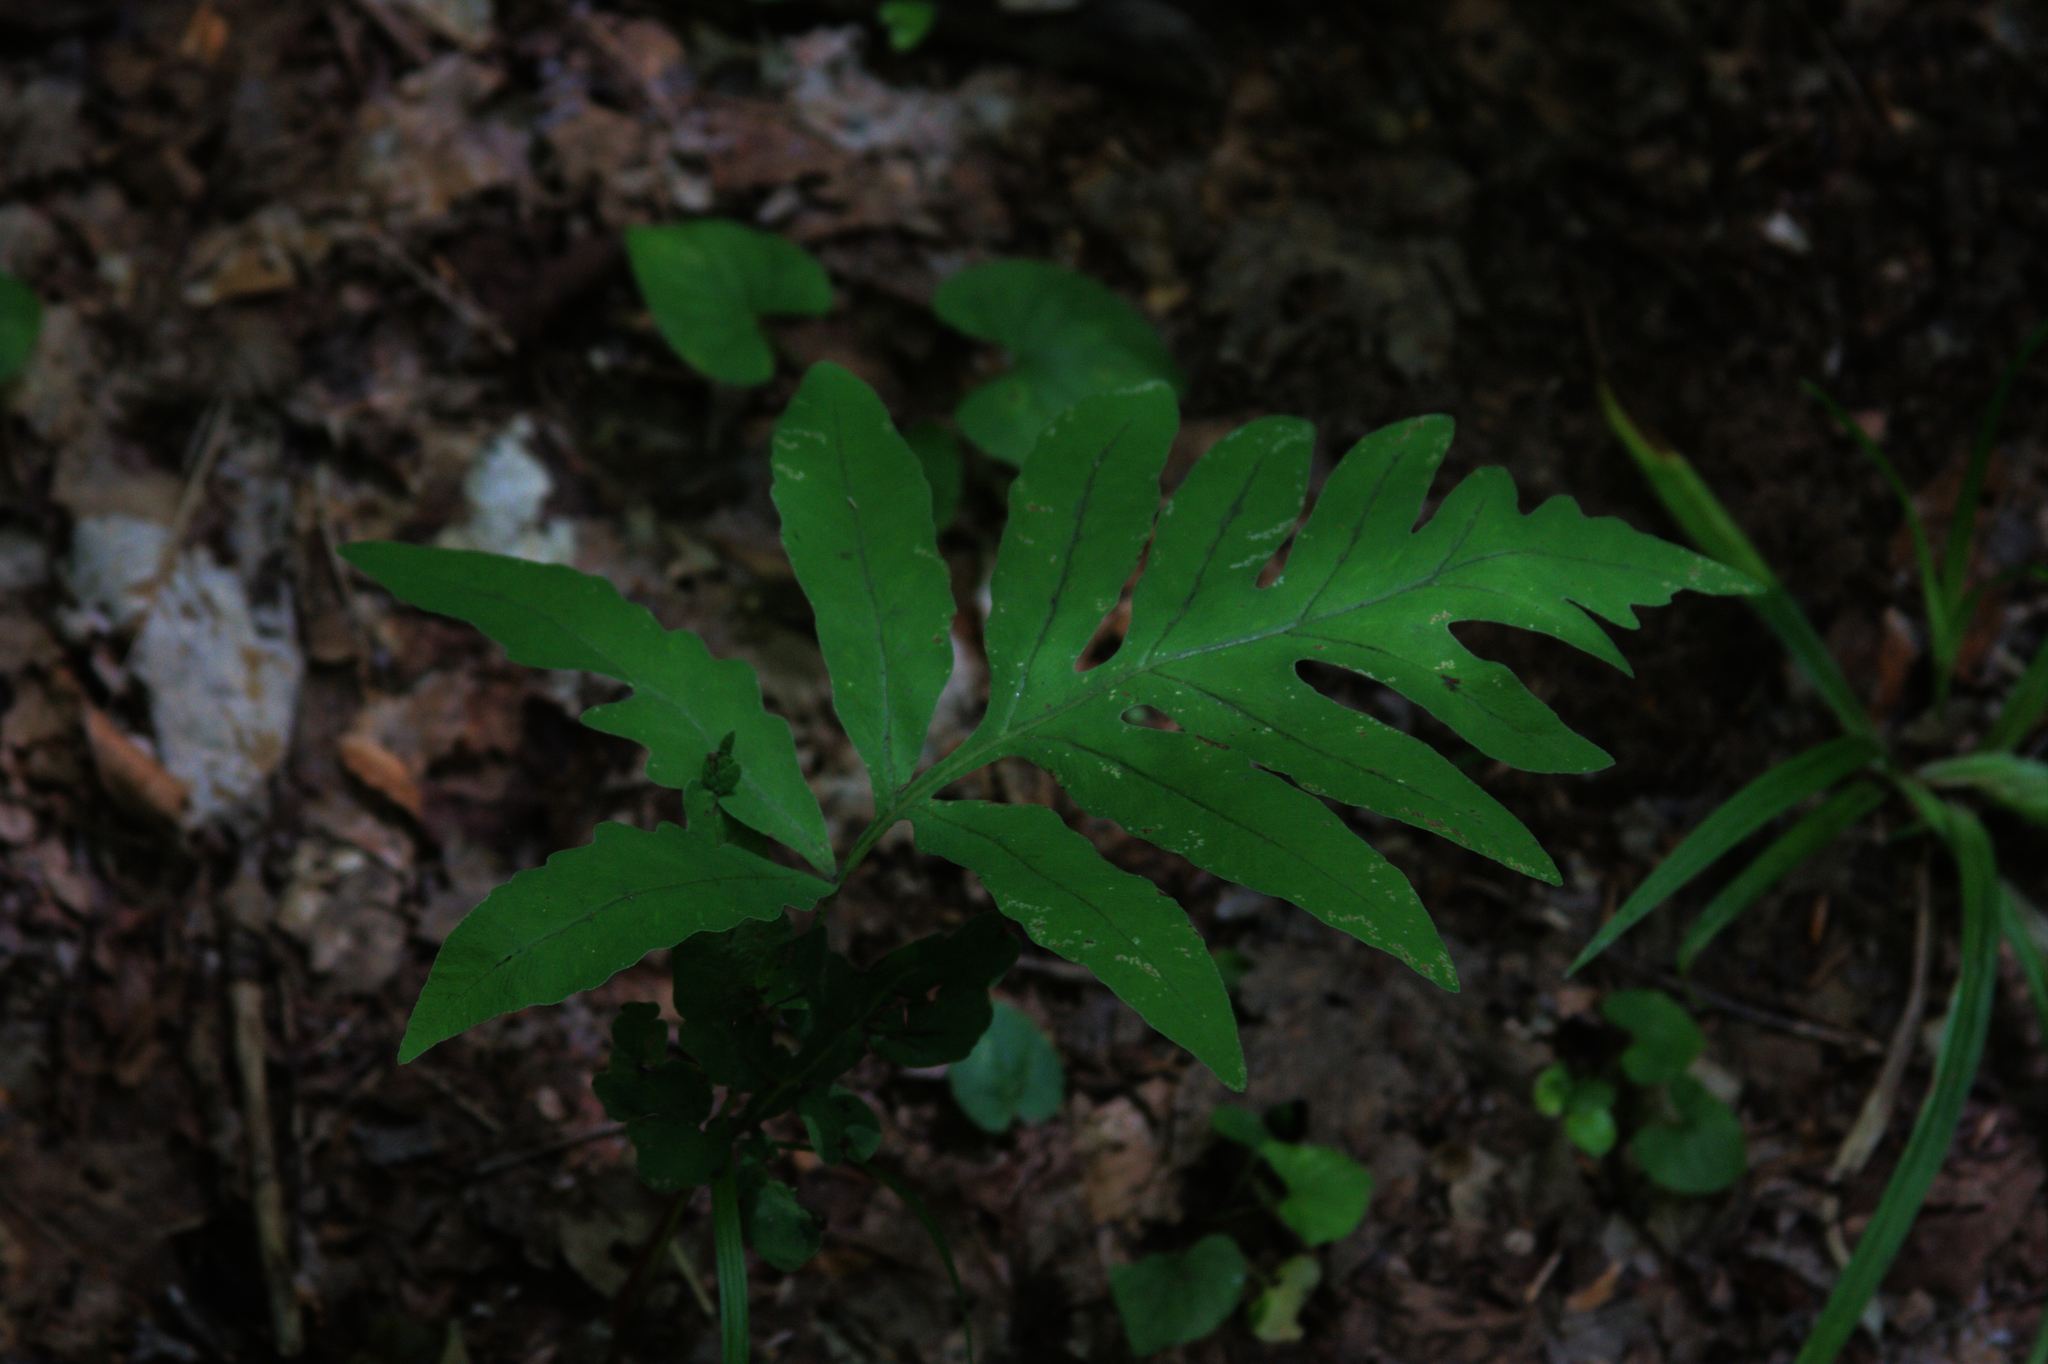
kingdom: Plantae
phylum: Tracheophyta
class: Polypodiopsida
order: Polypodiales
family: Onocleaceae
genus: Onoclea
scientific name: Onoclea sensibilis
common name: Sensitive fern
